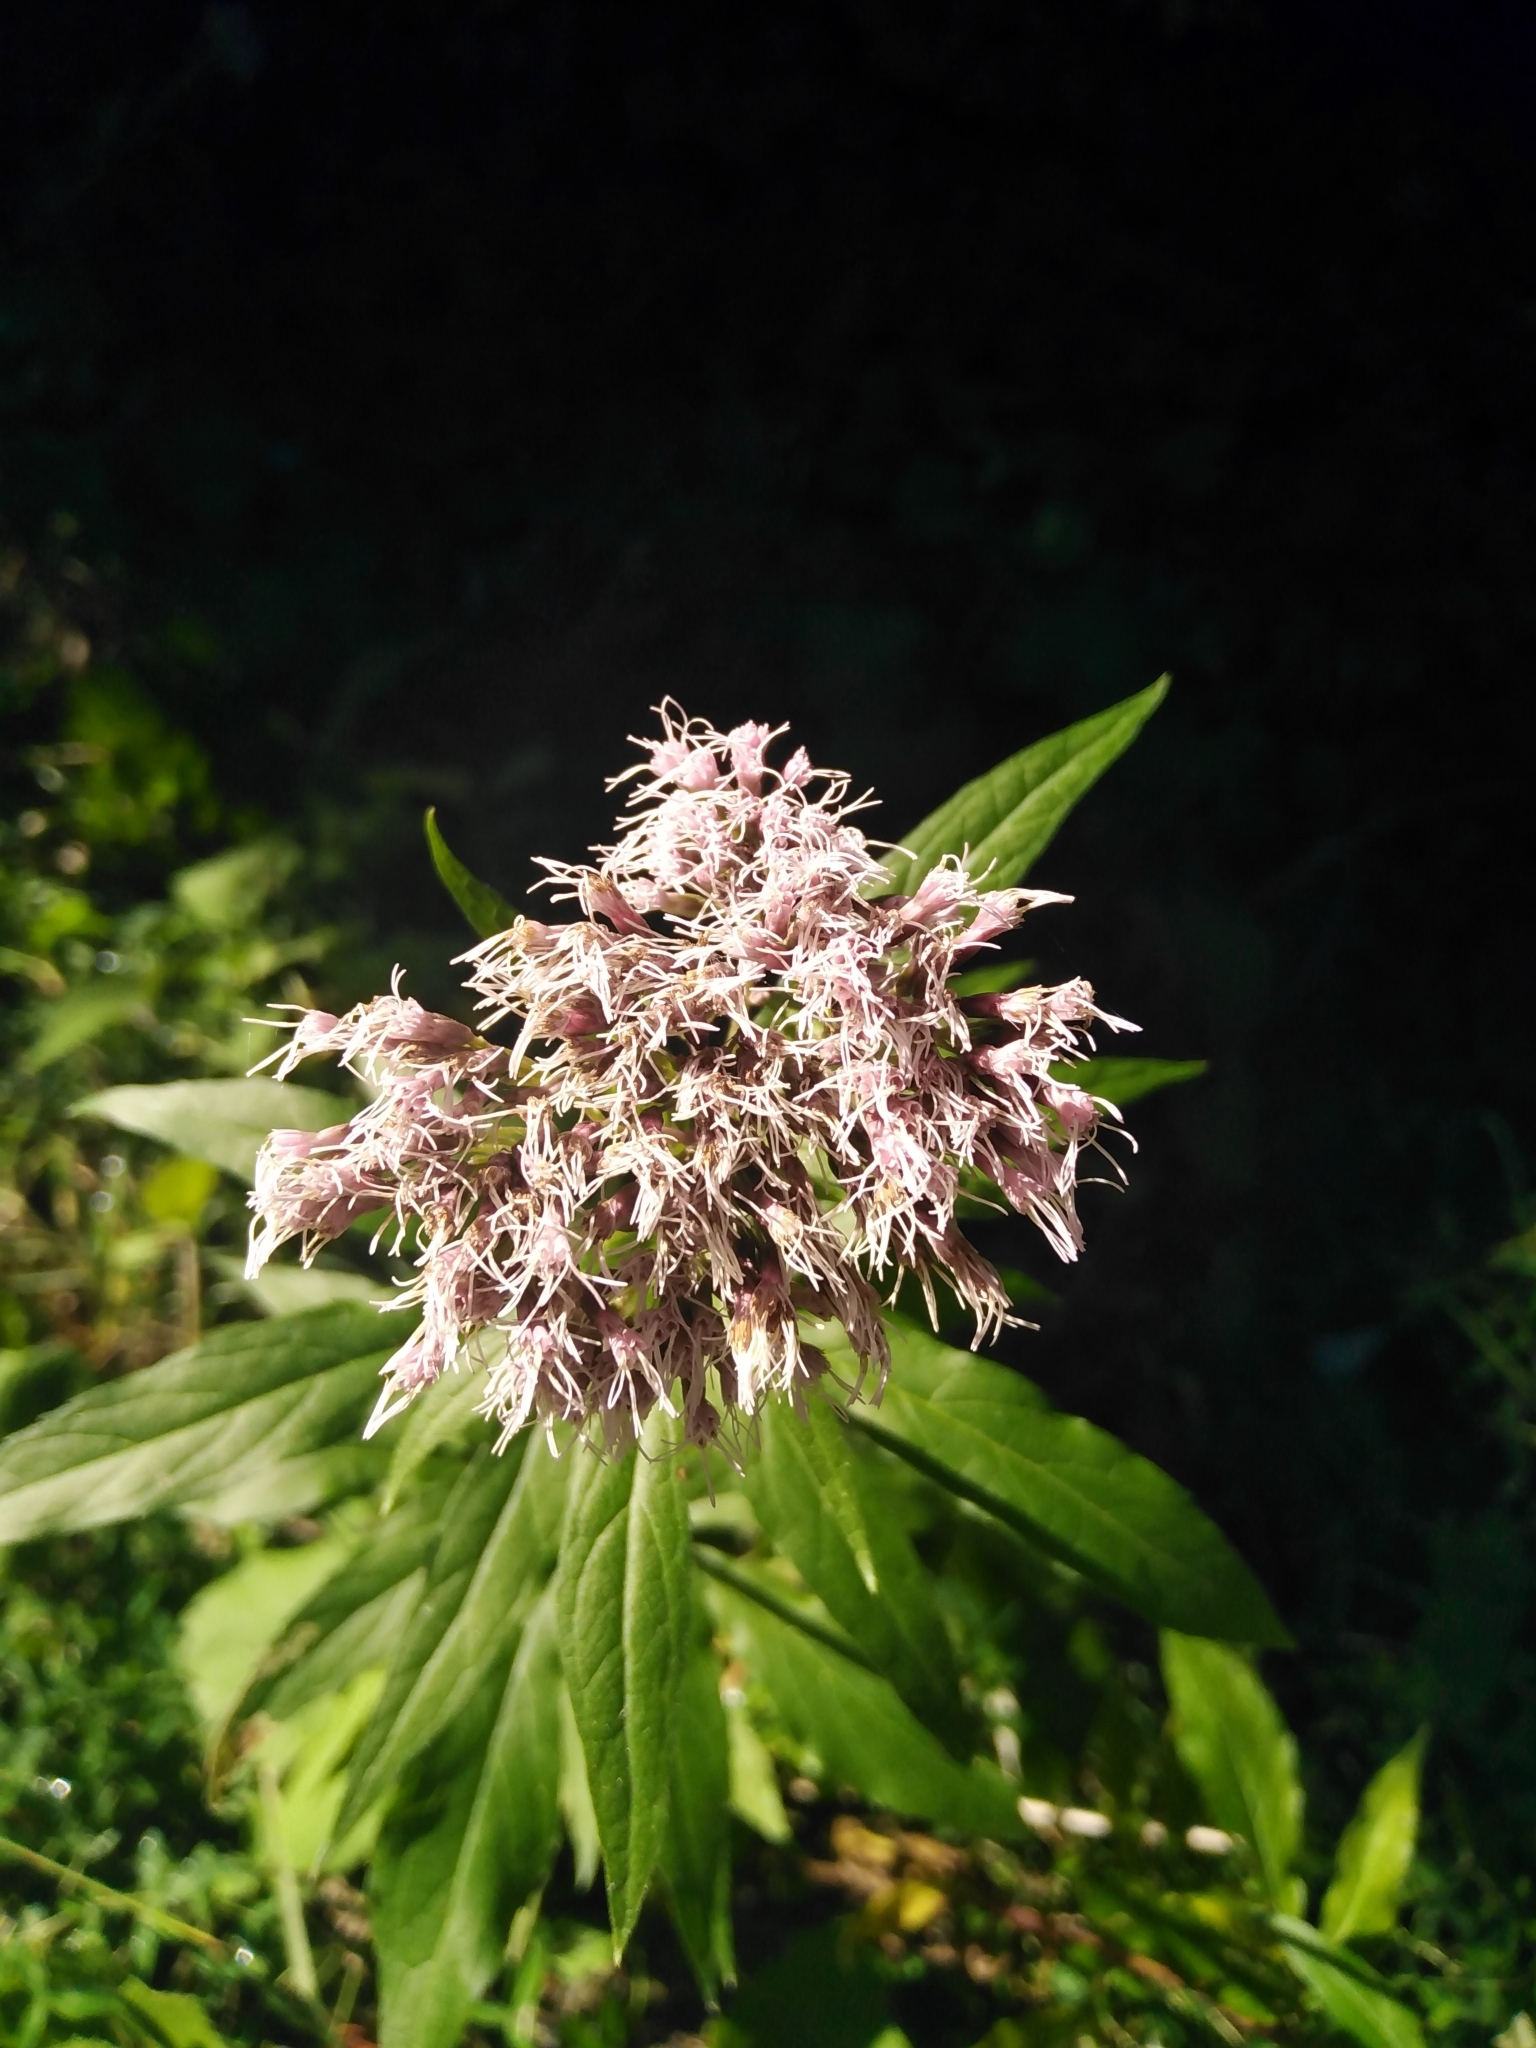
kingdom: Plantae
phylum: Tracheophyta
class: Magnoliopsida
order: Asterales
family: Asteraceae
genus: Eupatorium
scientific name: Eupatorium cannabinum
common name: Hemp-agrimony
